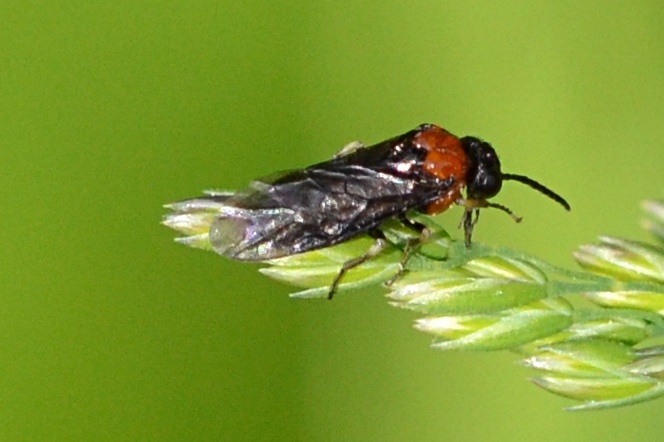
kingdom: Animalia
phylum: Arthropoda
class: Insecta
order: Hymenoptera
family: Tenthredinidae
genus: Eutomostethus
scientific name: Eutomostethus ephippium
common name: Tenthredid wasp
